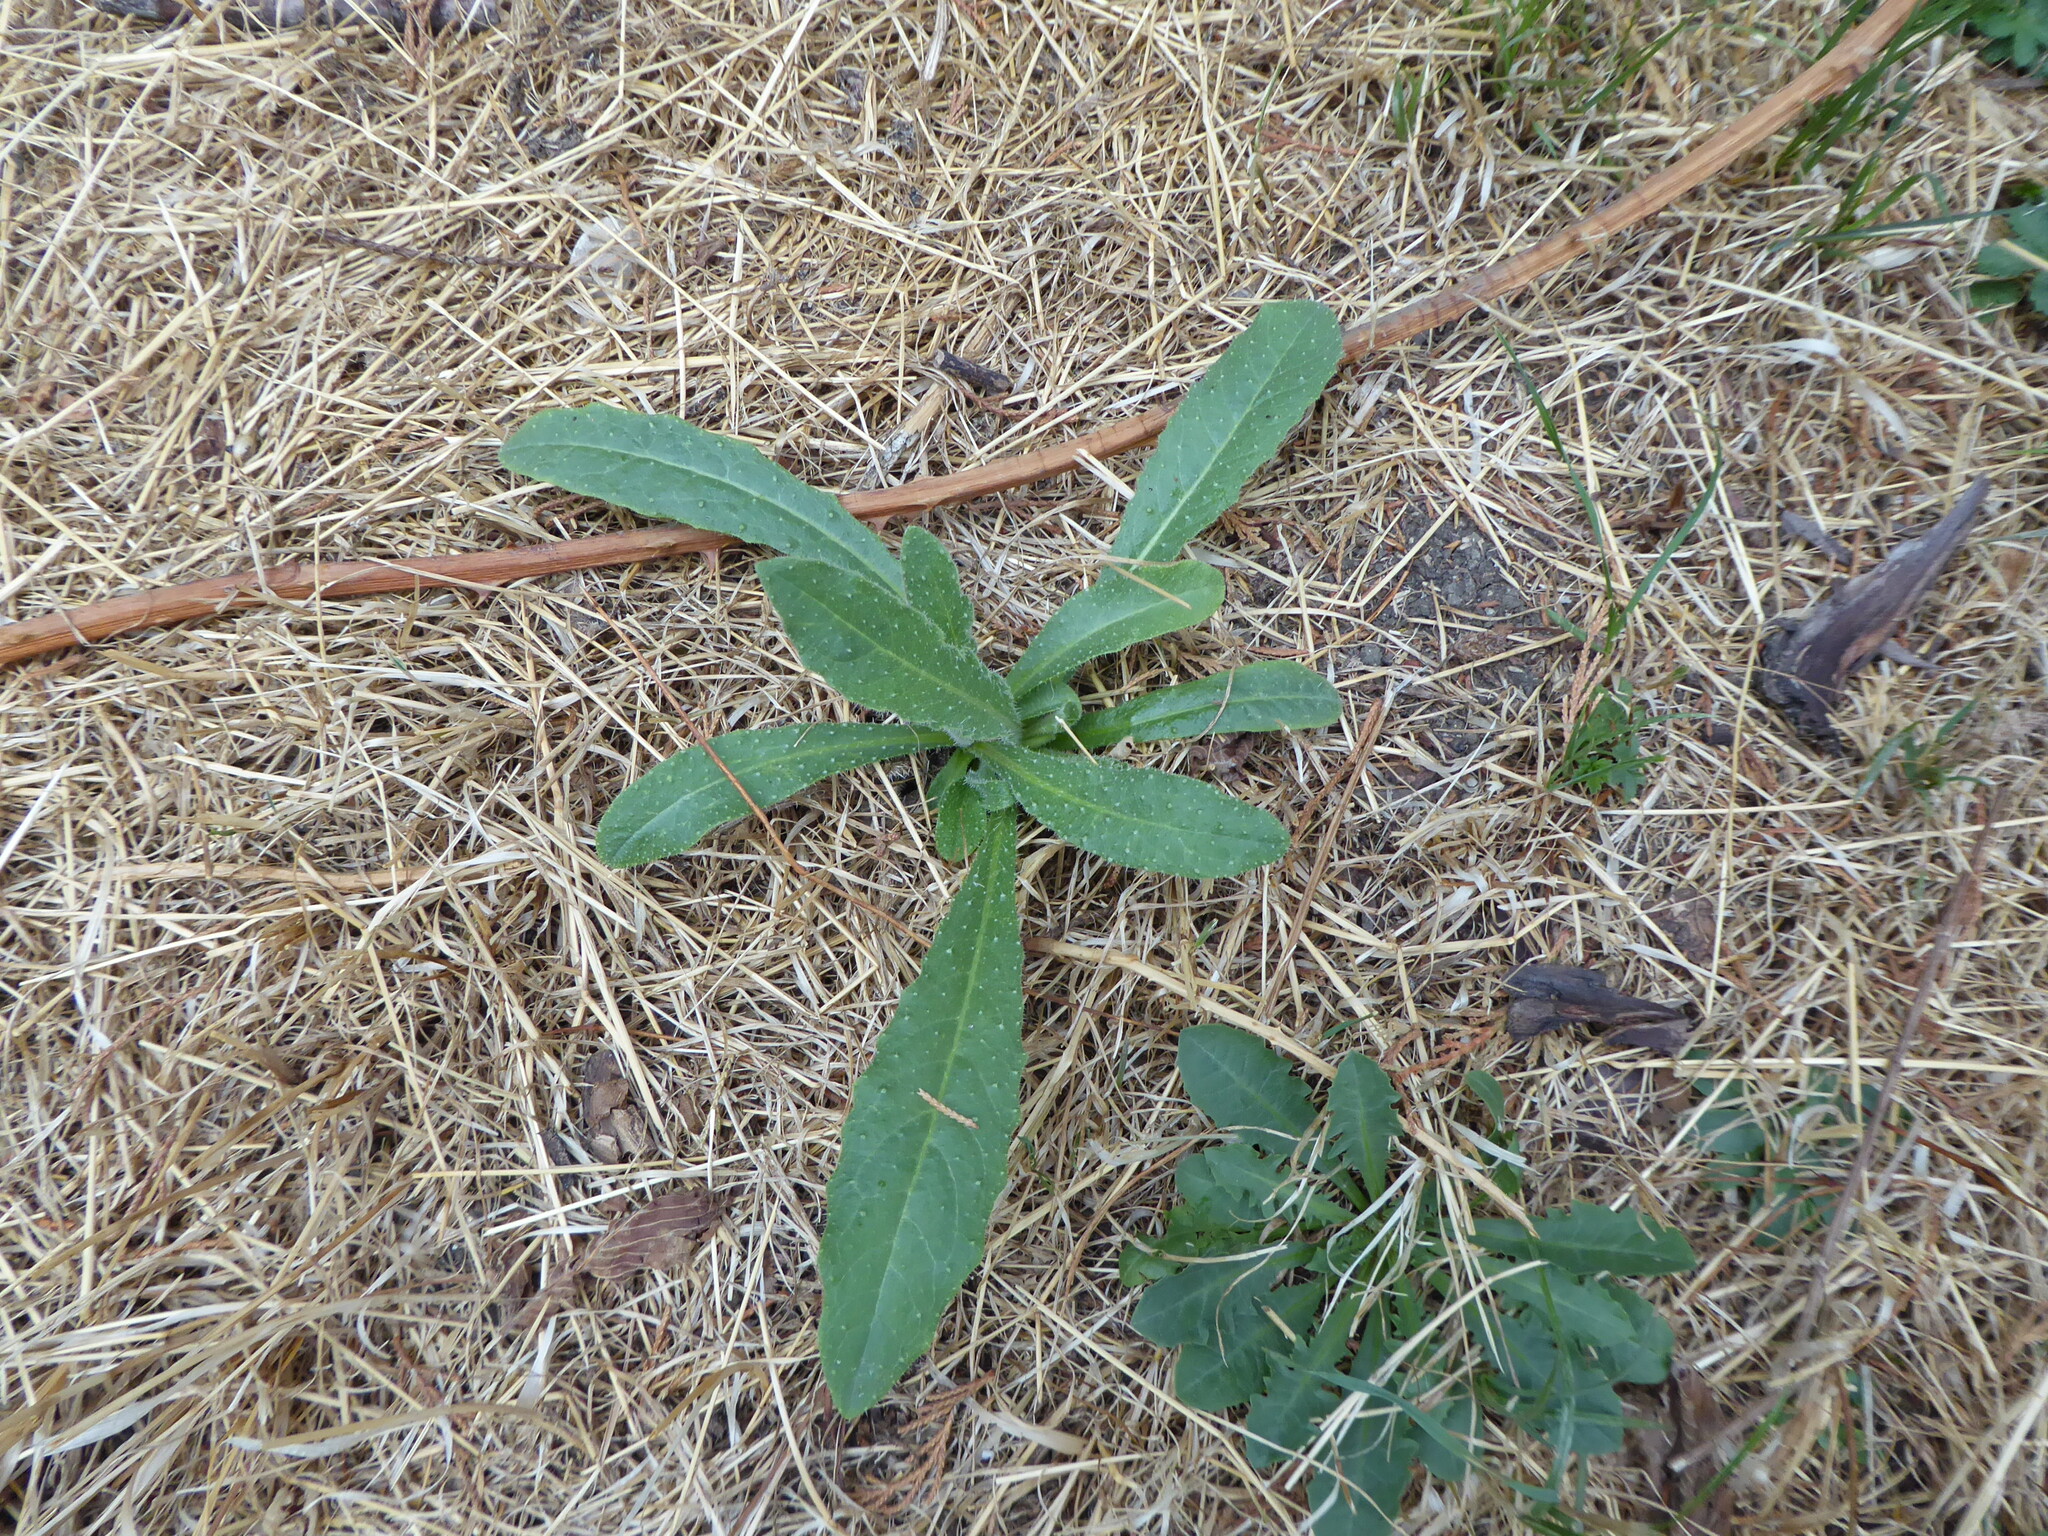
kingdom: Plantae
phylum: Tracheophyta
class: Magnoliopsida
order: Asterales
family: Asteraceae
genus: Helminthotheca
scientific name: Helminthotheca echioides
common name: Ox-tongue
